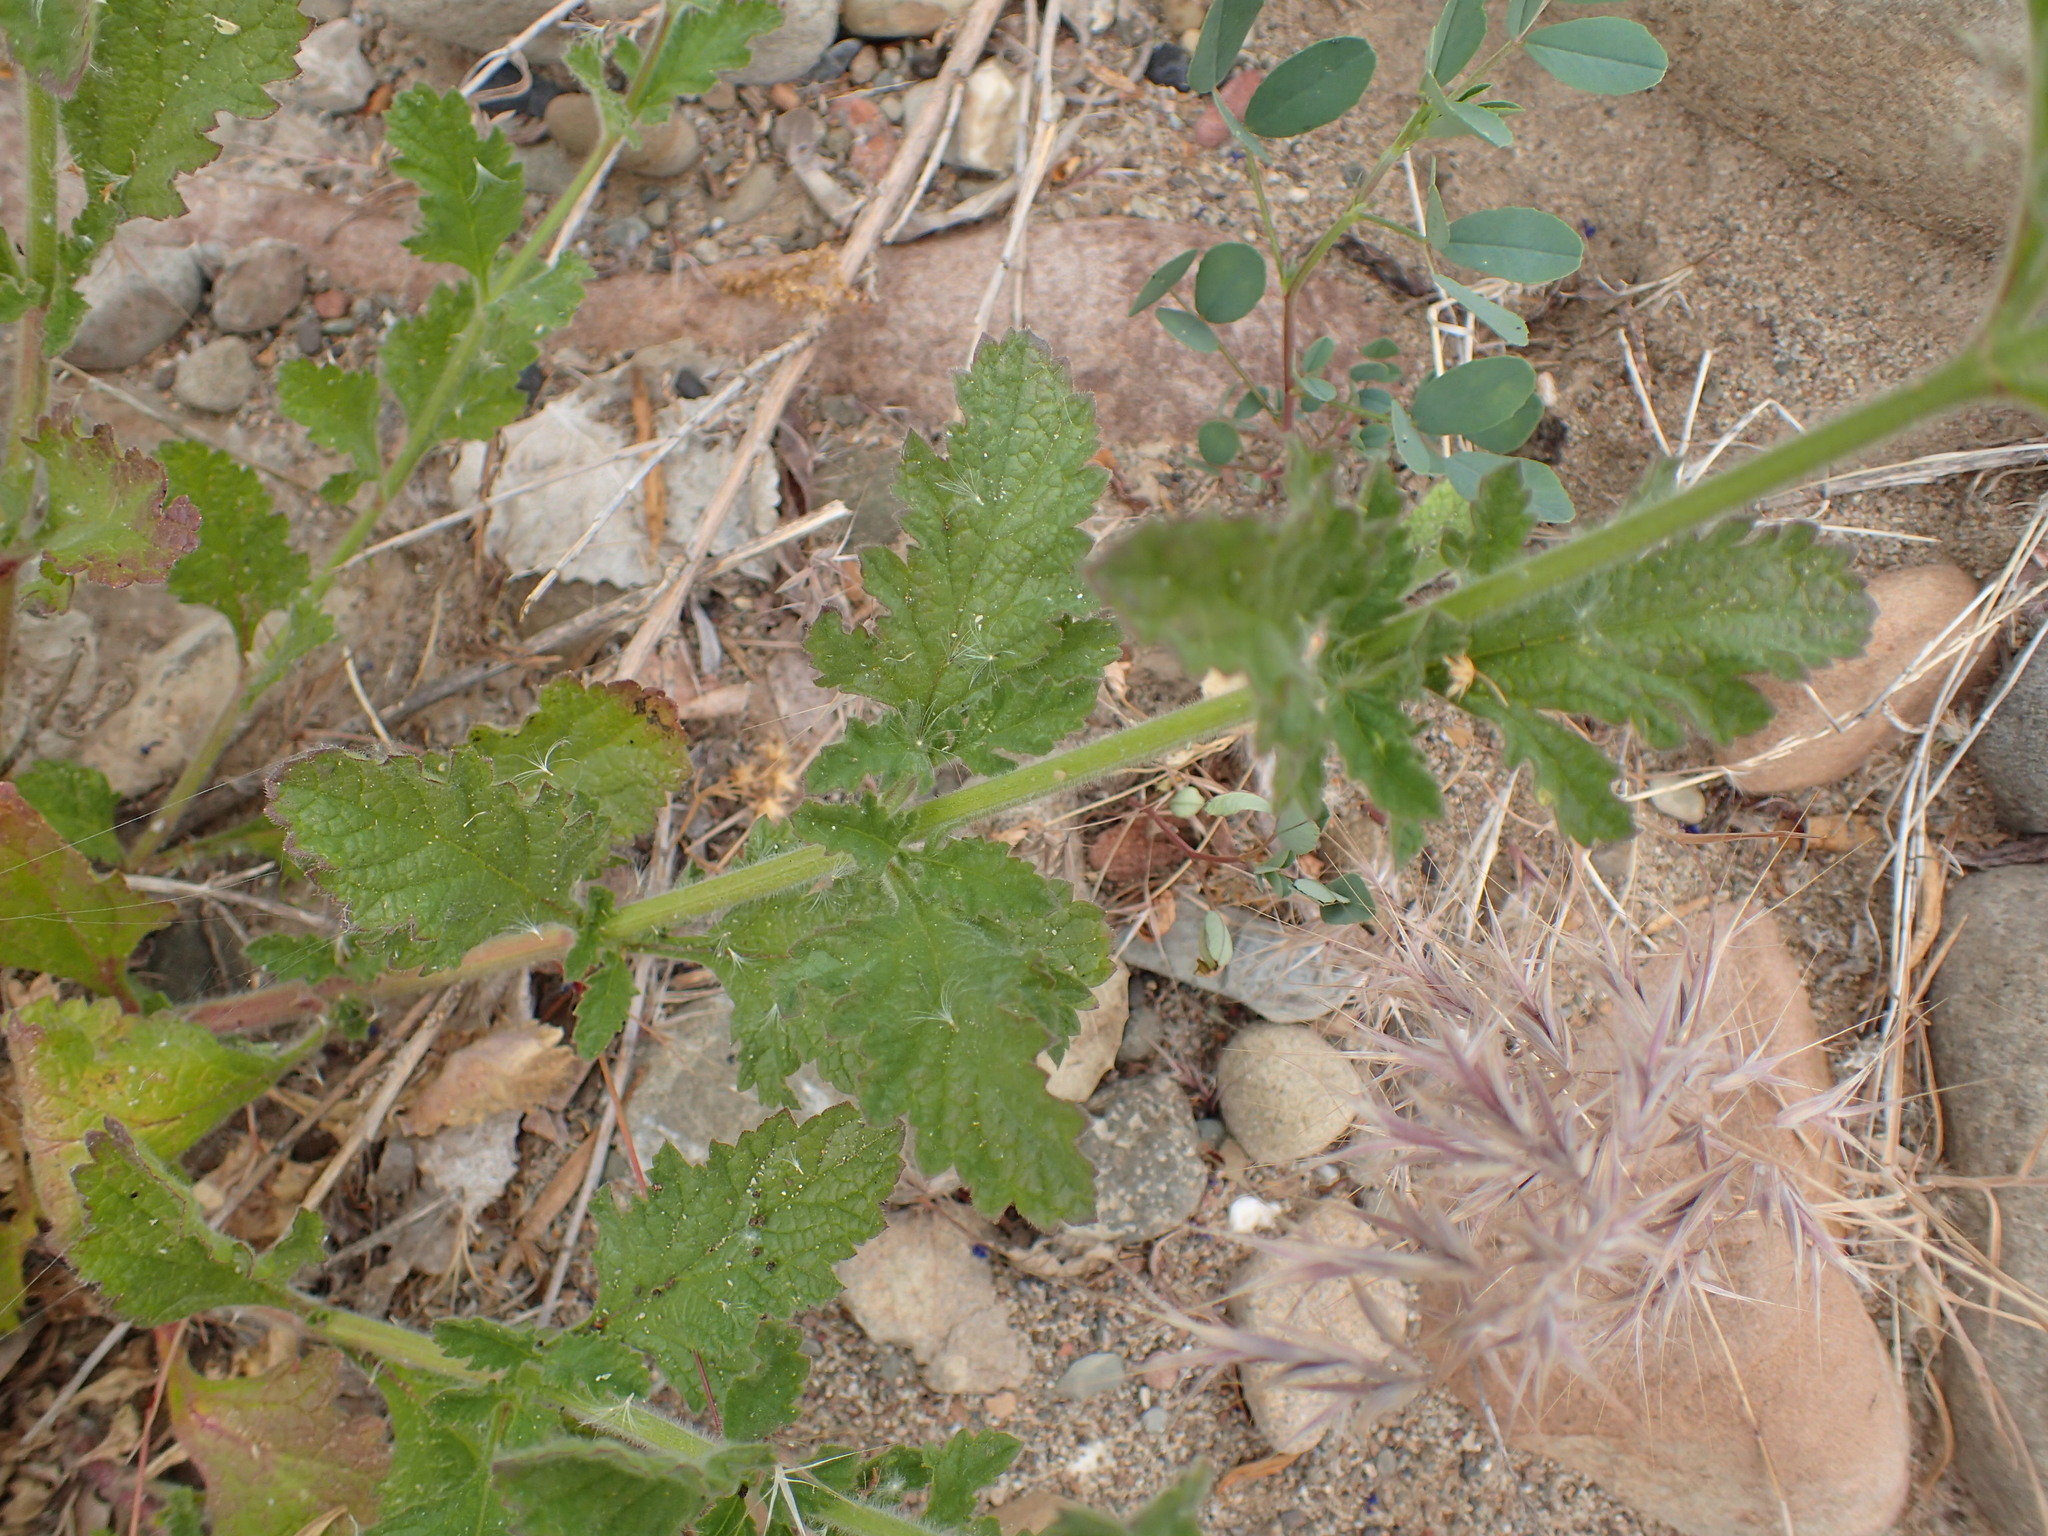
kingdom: Plantae
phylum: Tracheophyta
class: Magnoliopsida
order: Lamiales
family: Verbenaceae
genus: Verbena
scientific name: Verbena lasiostachys
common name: Vervain
